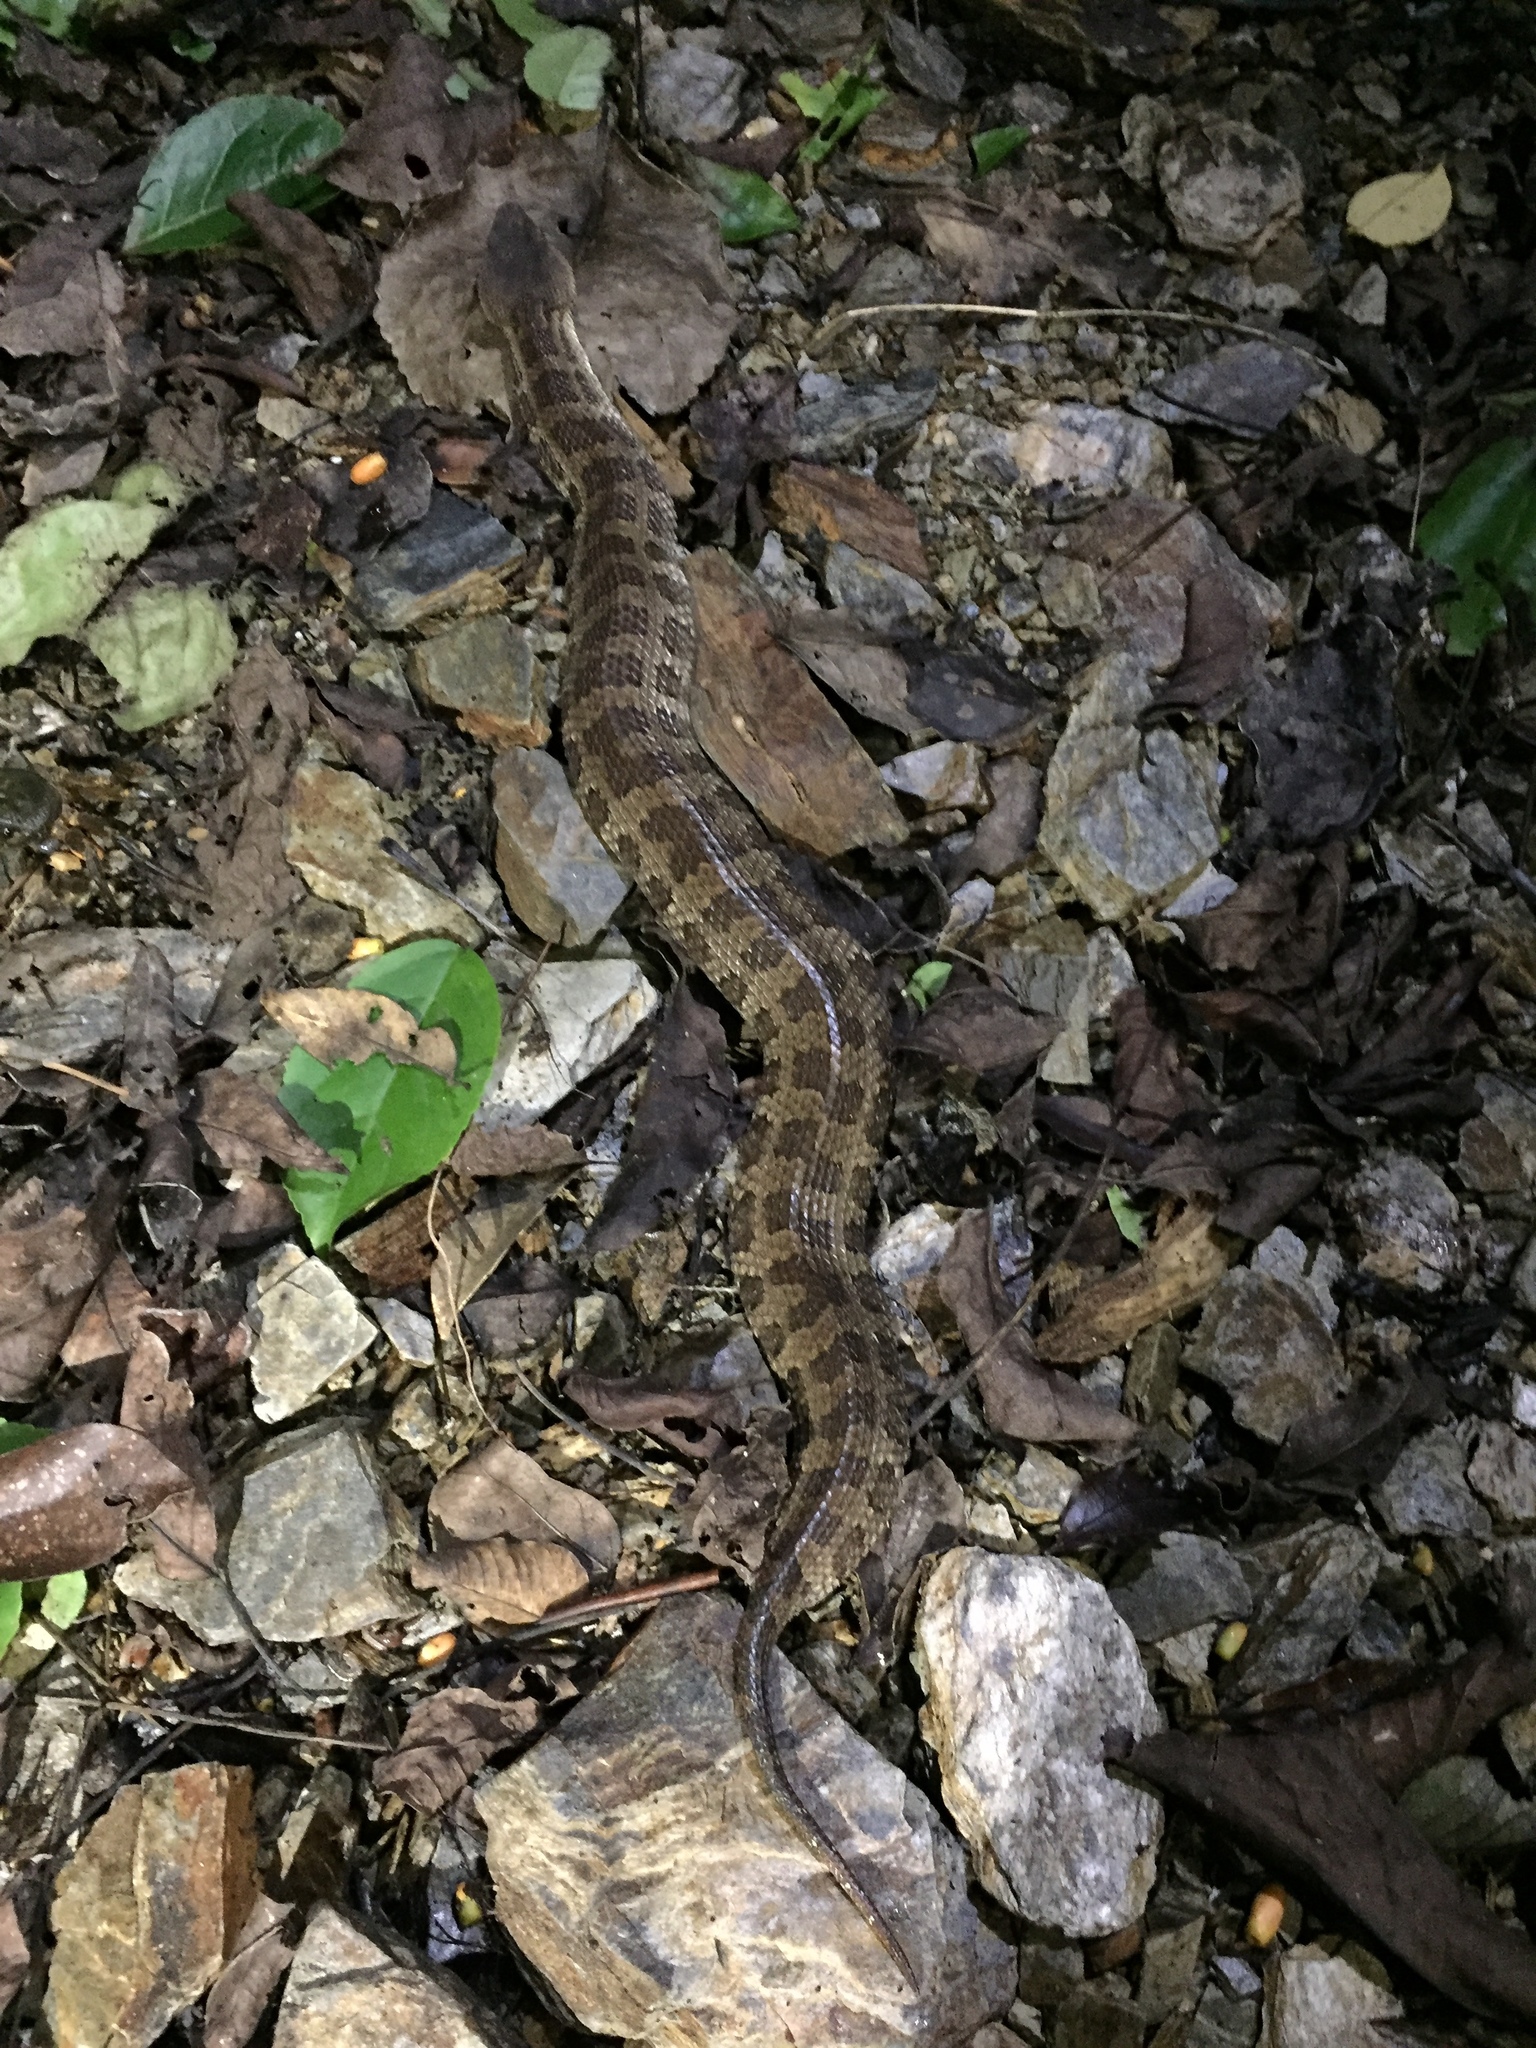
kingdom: Animalia
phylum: Chordata
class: Squamata
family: Viperidae
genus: Ovophis
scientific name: Ovophis okinavensis
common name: Okinawa pitviper
